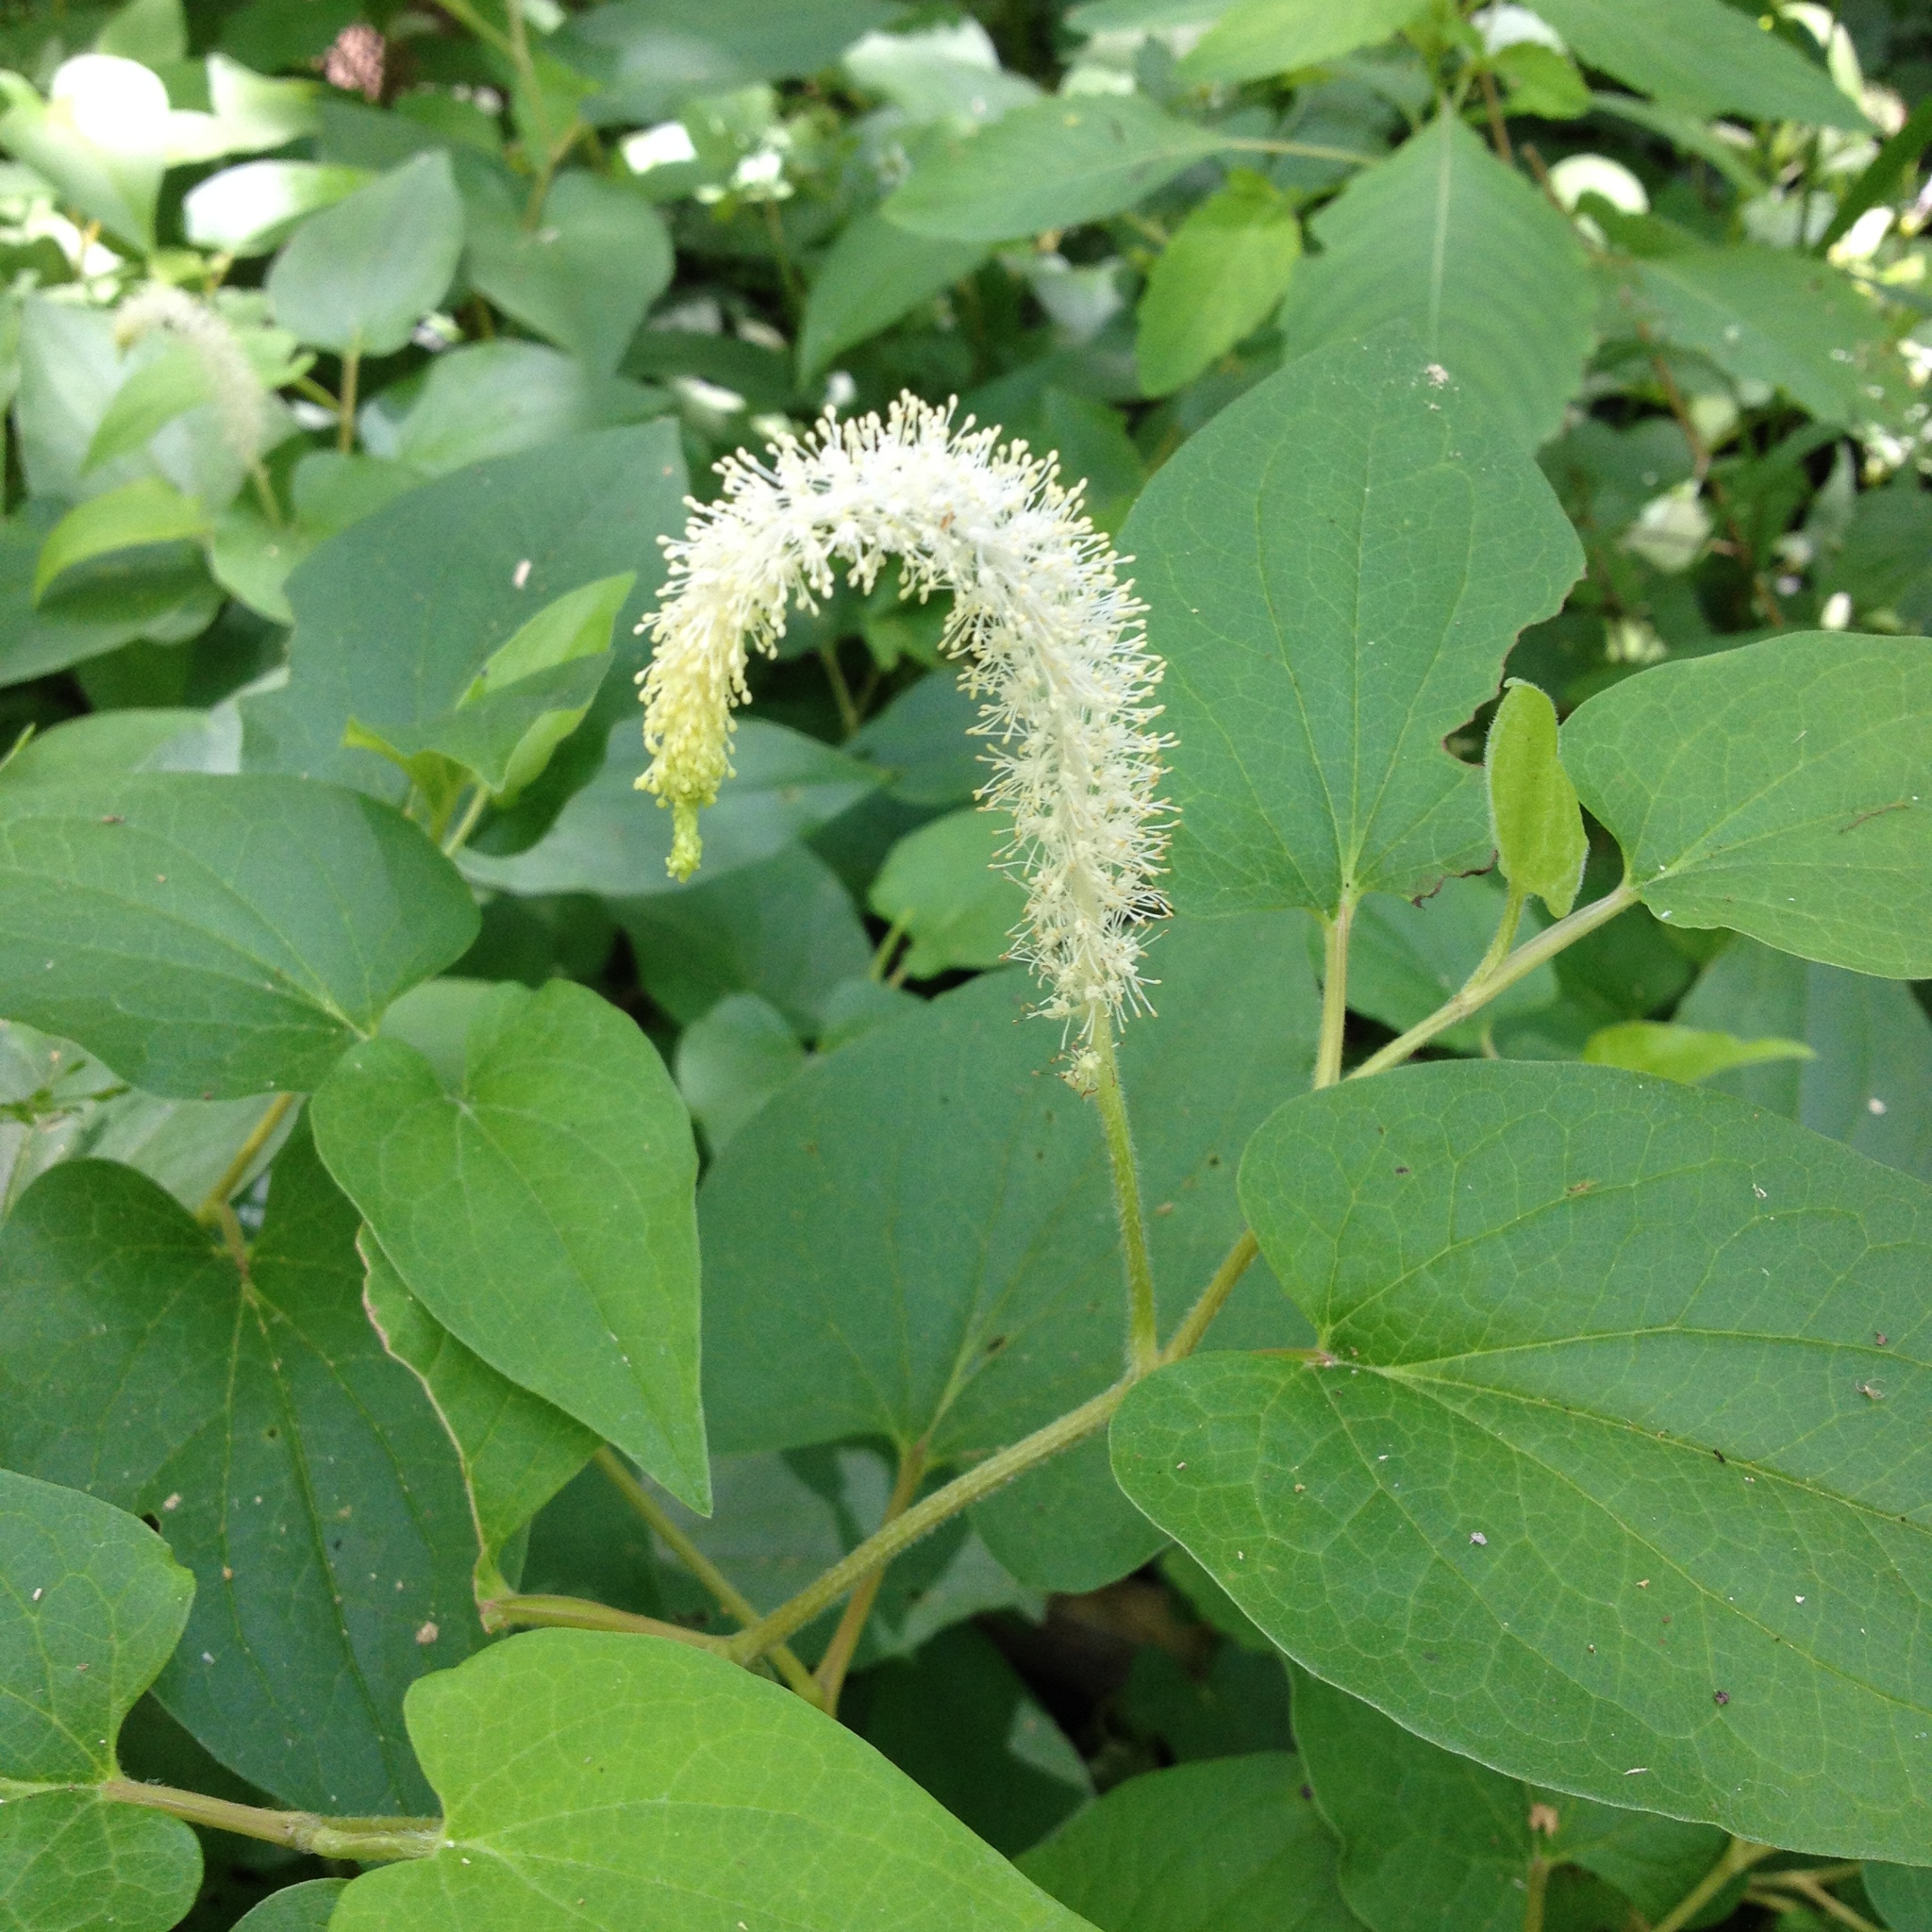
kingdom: Plantae
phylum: Tracheophyta
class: Magnoliopsida
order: Piperales
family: Saururaceae
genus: Saururus
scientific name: Saururus cernuus
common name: Lizard's-tail
